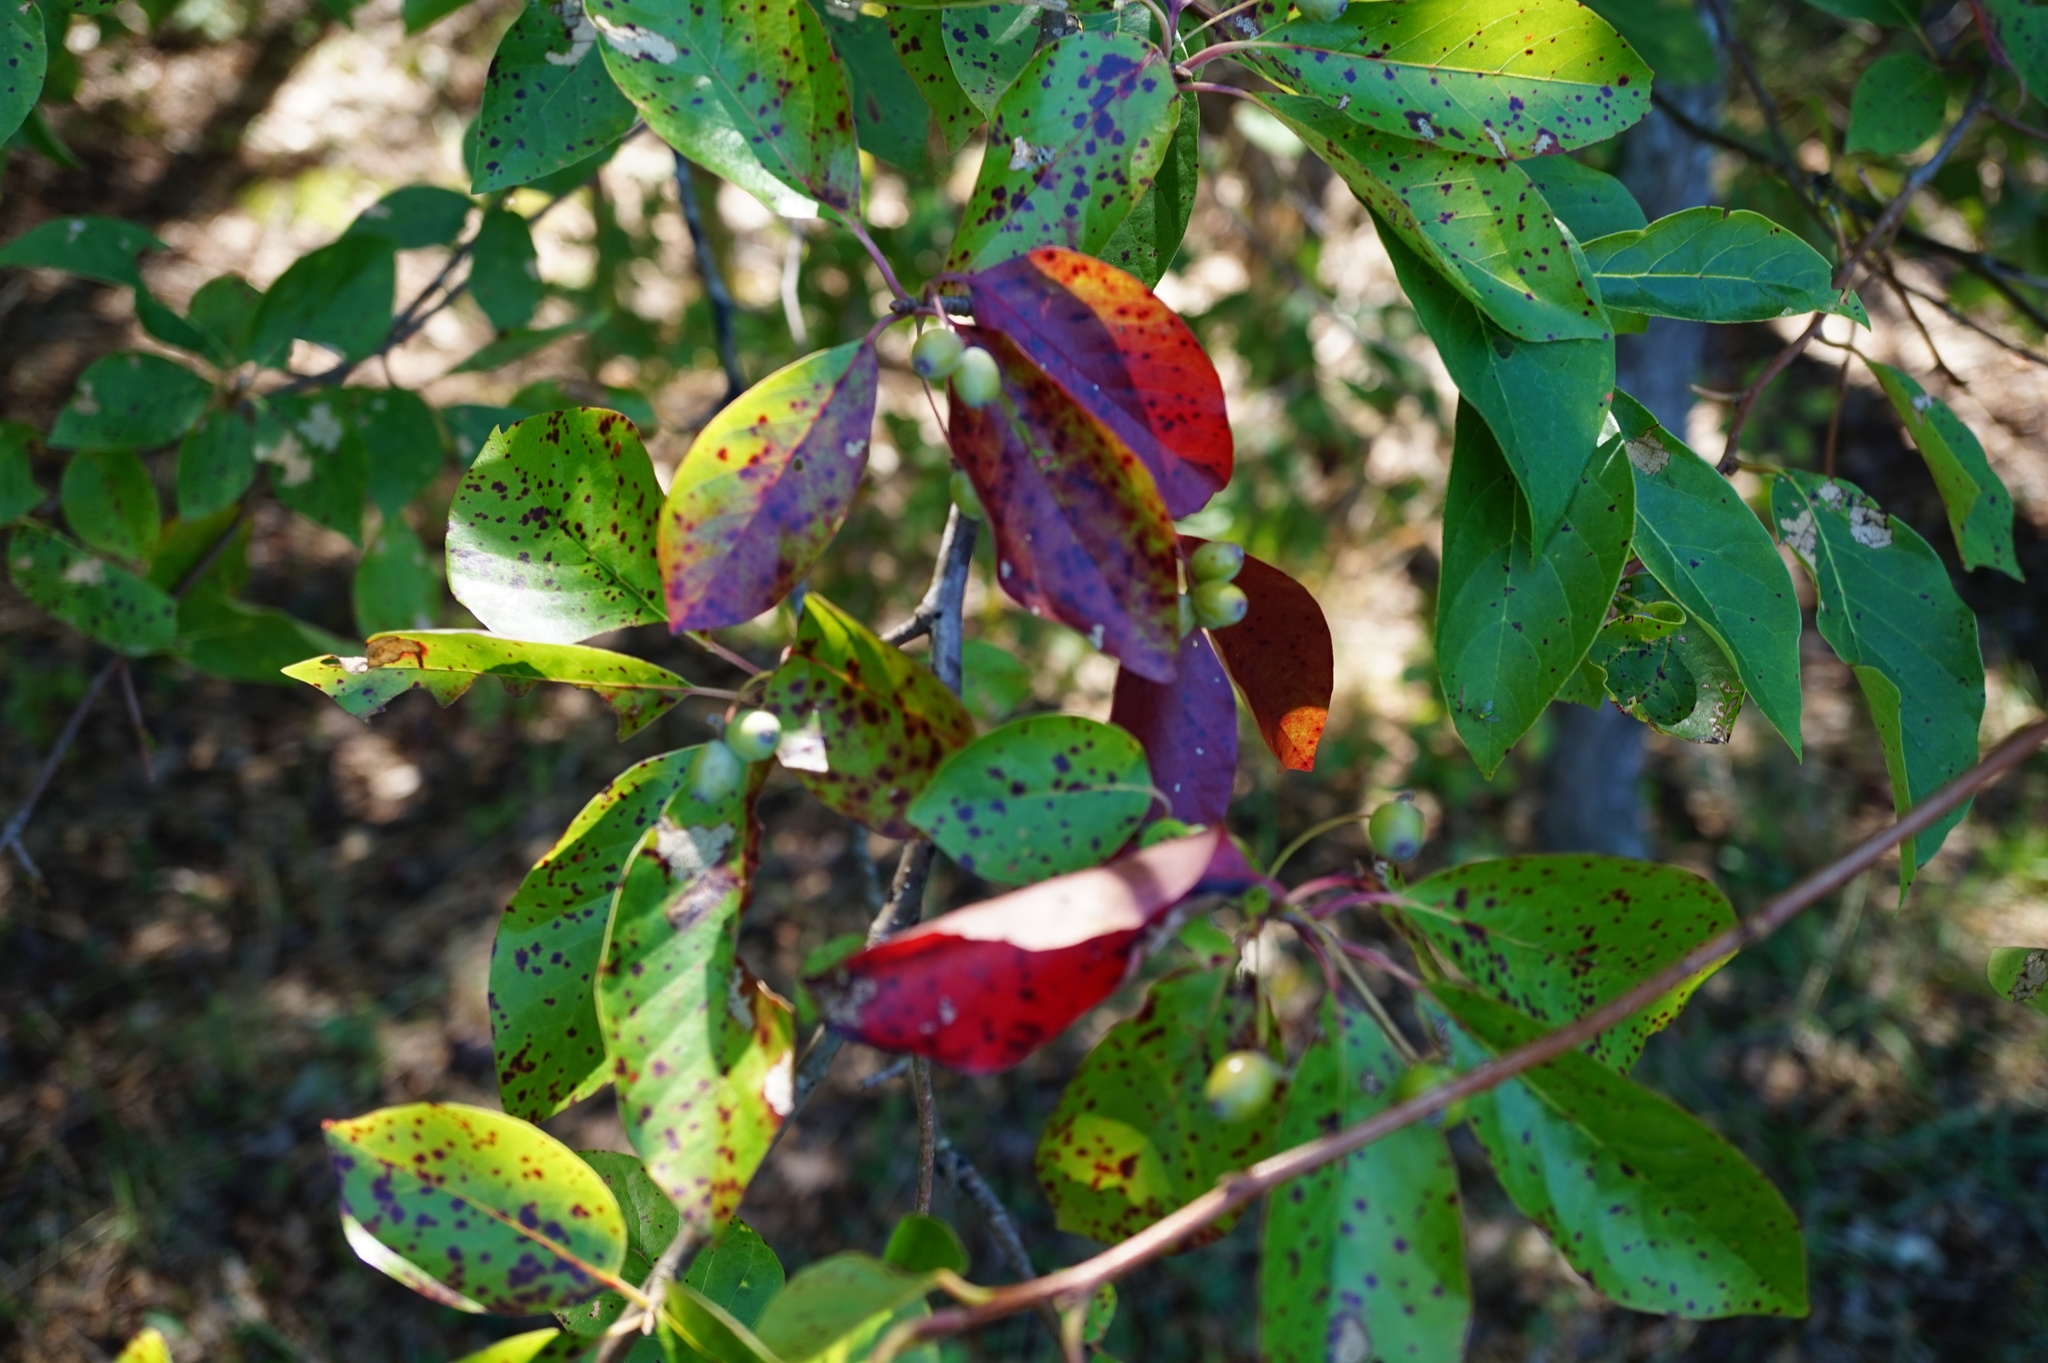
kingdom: Plantae
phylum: Tracheophyta
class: Magnoliopsida
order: Cornales
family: Nyssaceae
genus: Nyssa
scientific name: Nyssa sylvatica
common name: Black tupelo
